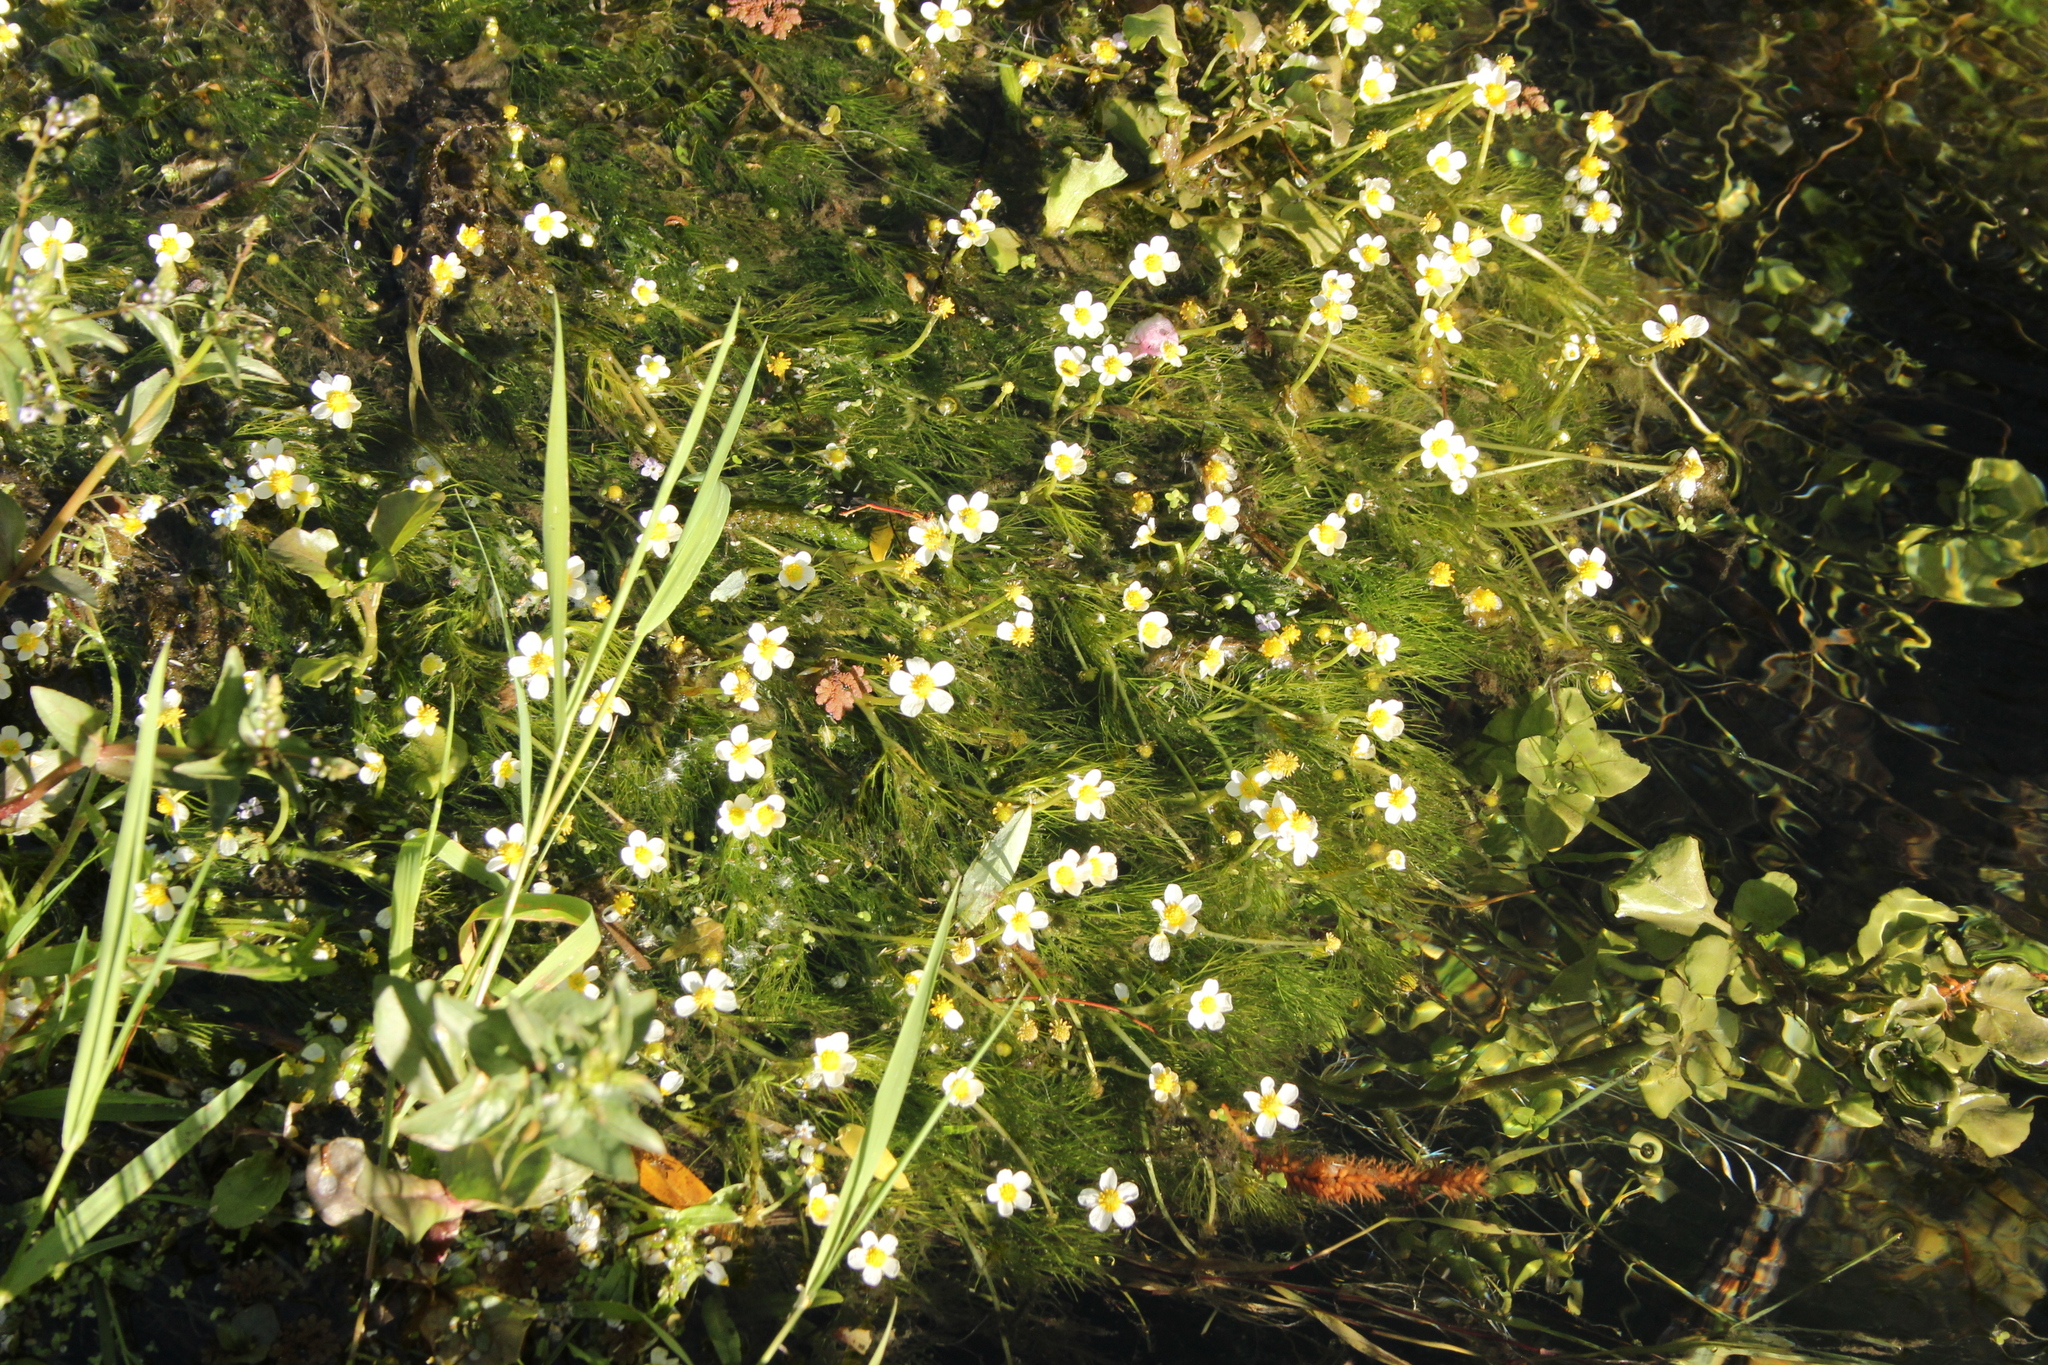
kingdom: Plantae
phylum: Tracheophyta
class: Magnoliopsida
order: Ranunculales
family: Ranunculaceae
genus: Ranunculus
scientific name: Ranunculus trichophyllus
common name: Thread-leaved water-crowfoot
